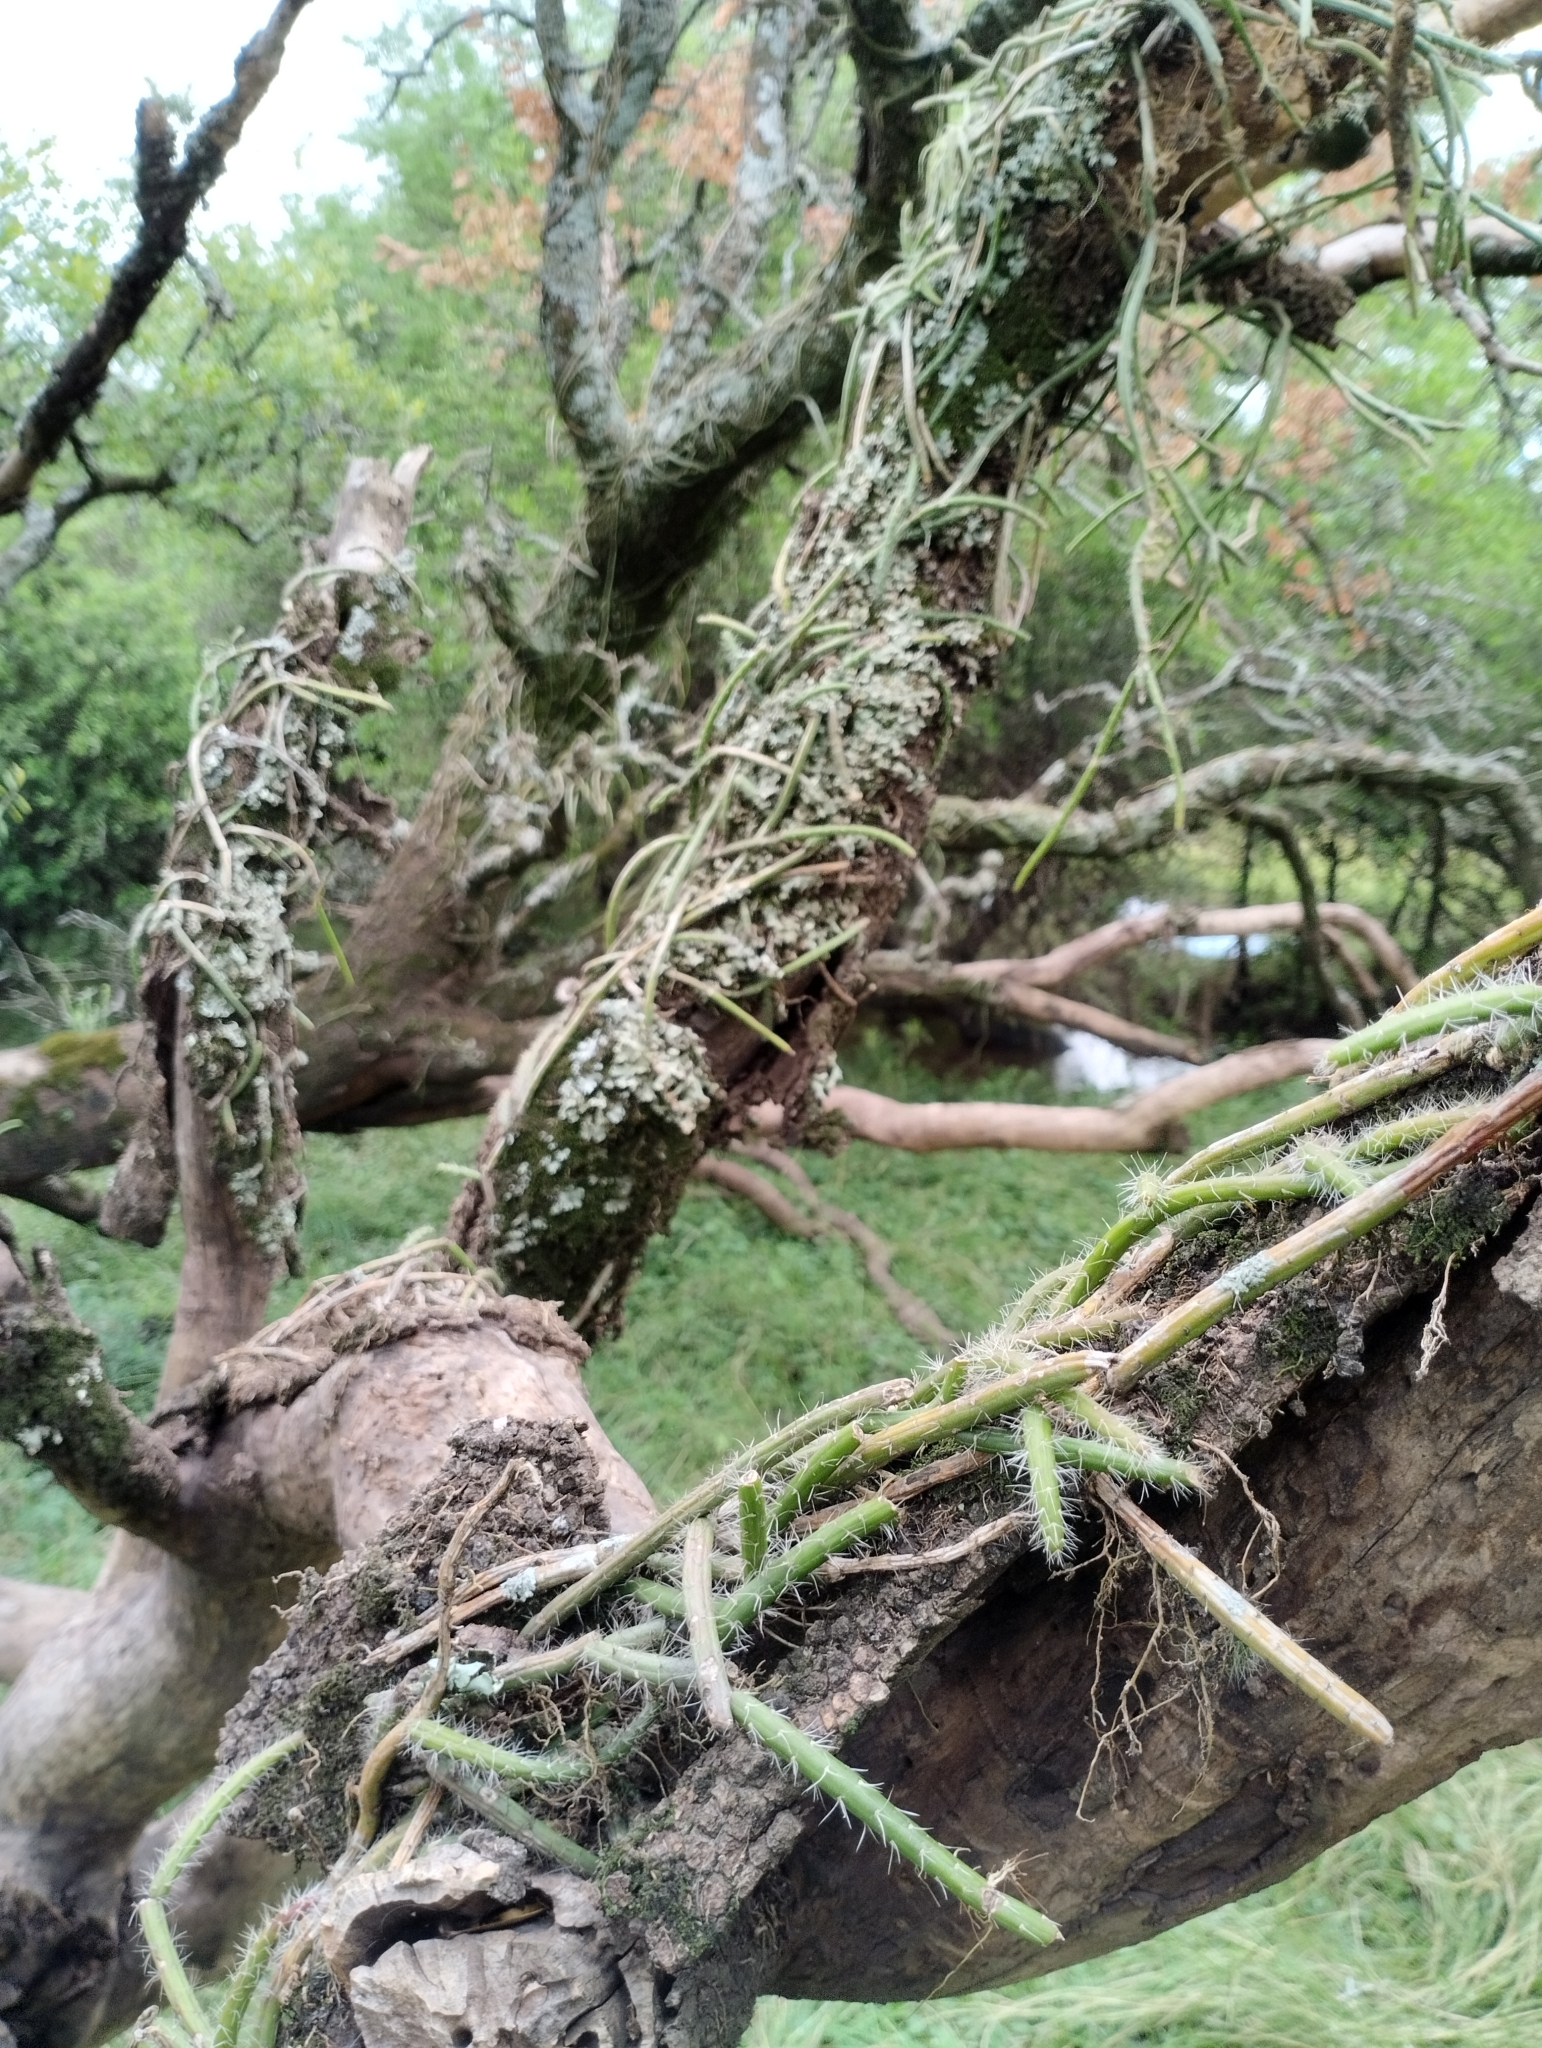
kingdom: Plantae
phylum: Tracheophyta
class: Magnoliopsida
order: Caryophyllales
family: Cactaceae
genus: Lepismium
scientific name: Lepismium lumbricoides
